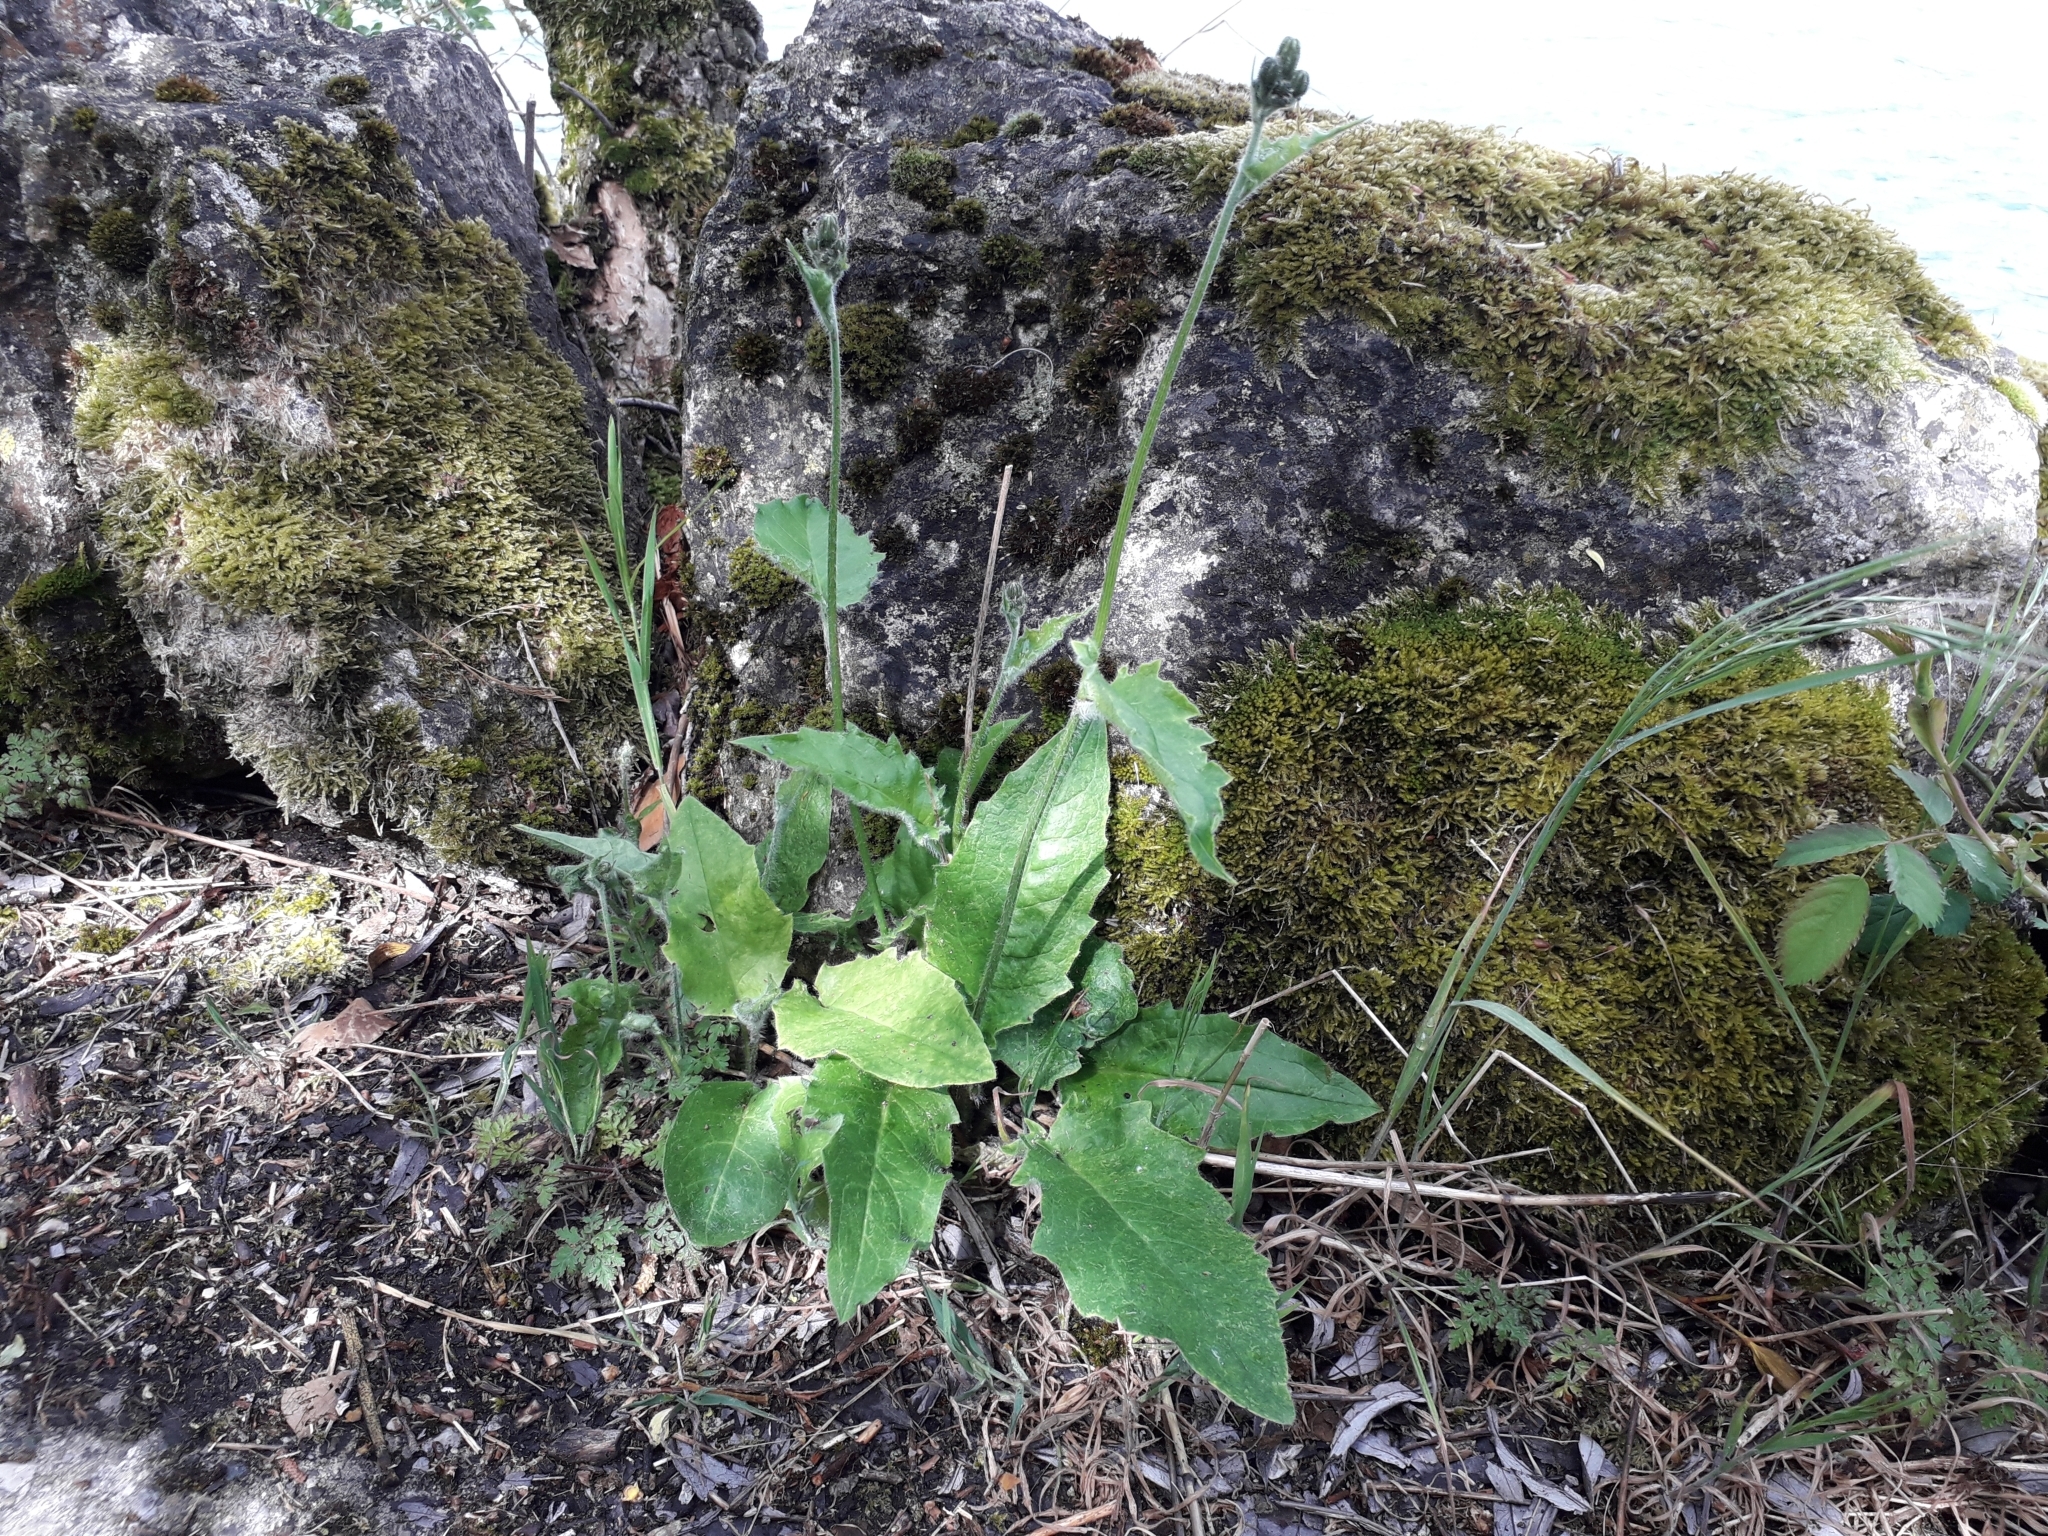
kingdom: Plantae
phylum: Tracheophyta
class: Magnoliopsida
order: Asterales
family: Asteraceae
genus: Hieracium
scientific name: Hieracium murorum
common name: Wall hawkweed
